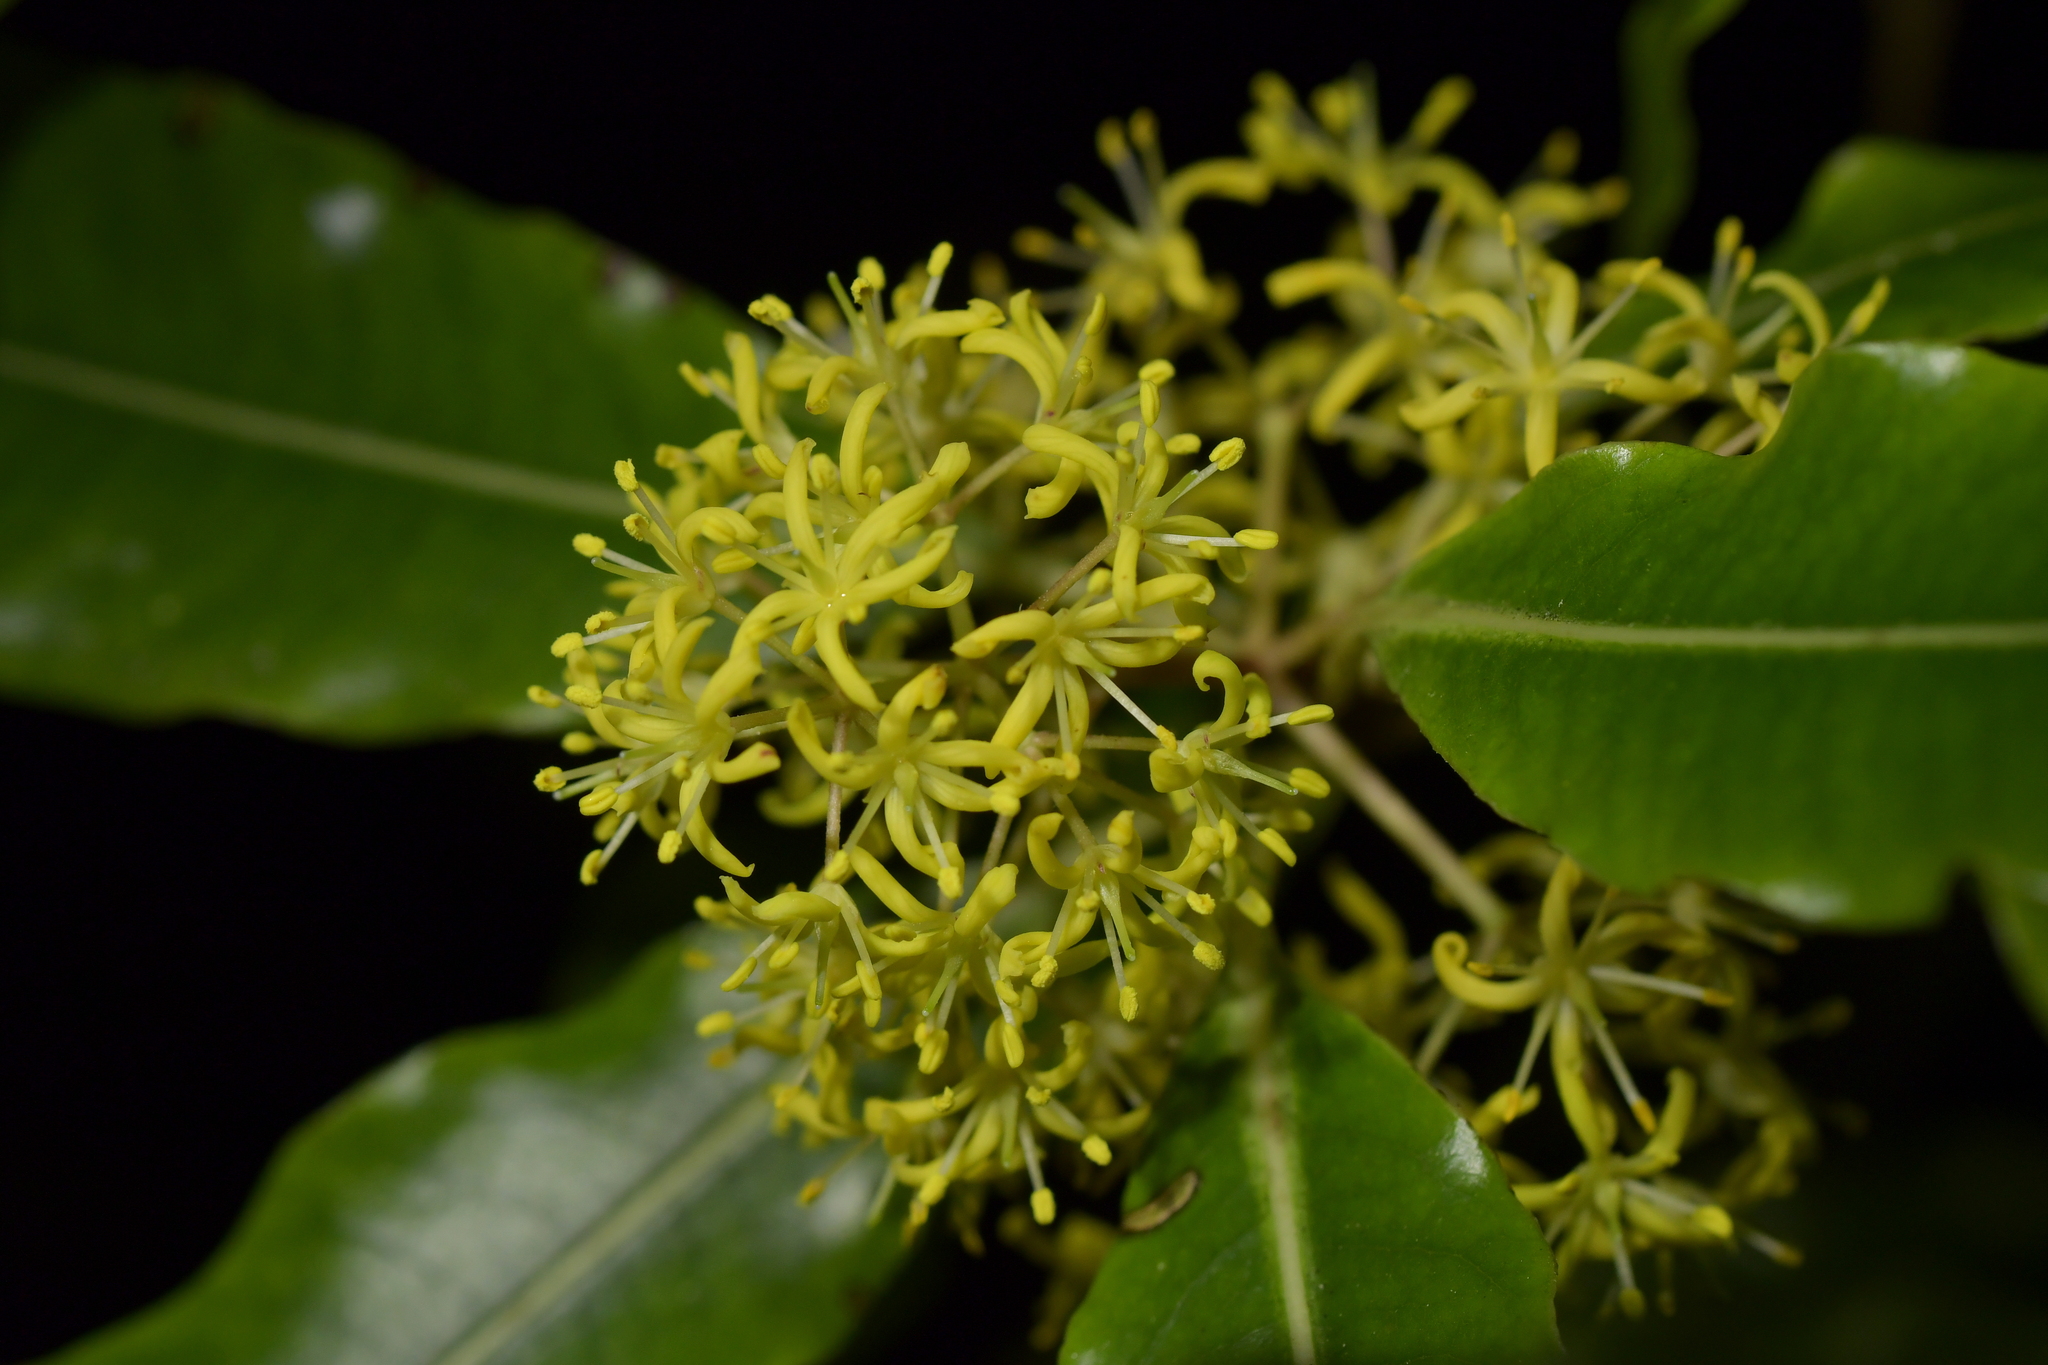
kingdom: Plantae
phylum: Tracheophyta
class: Magnoliopsida
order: Apiales
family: Pittosporaceae
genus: Pittosporum
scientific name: Pittosporum eugenioides
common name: Lemonwood
